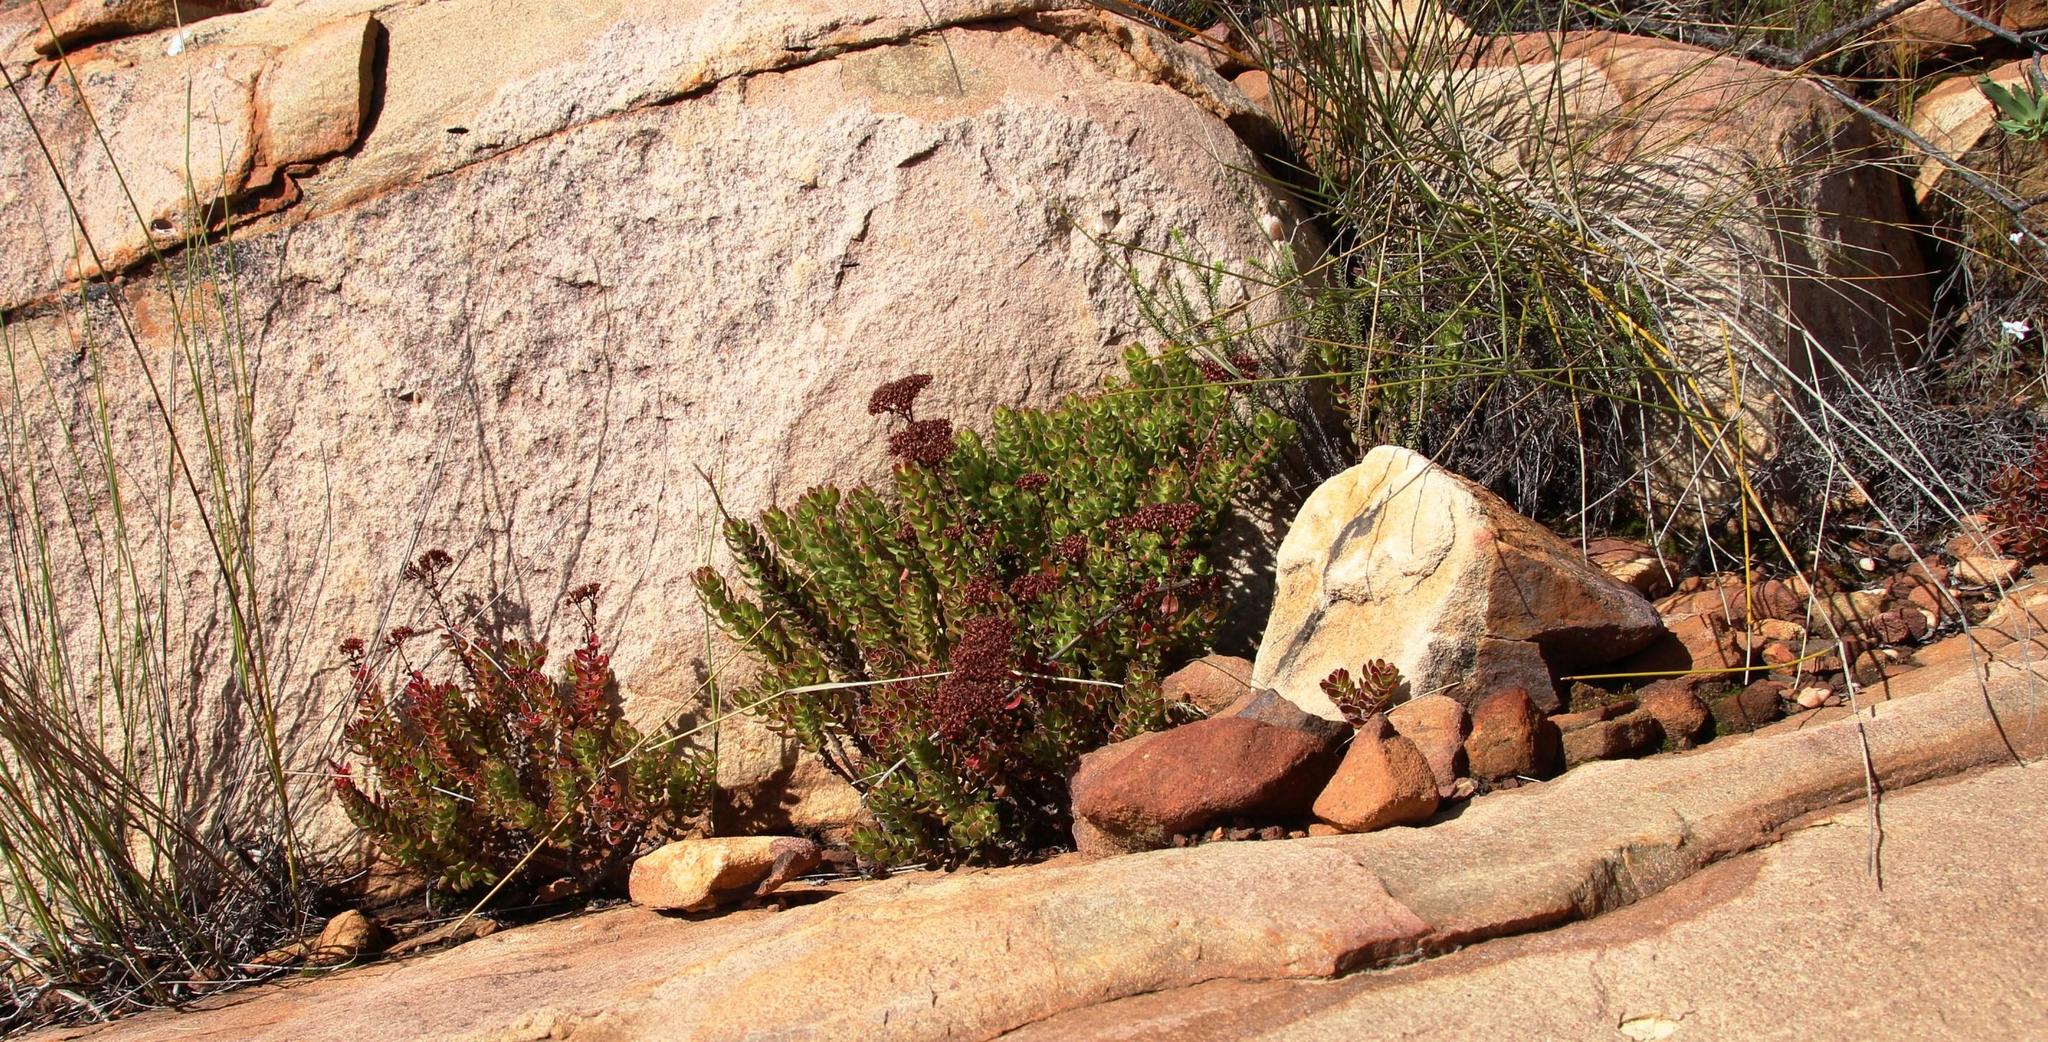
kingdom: Plantae
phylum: Tracheophyta
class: Magnoliopsida
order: Saxifragales
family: Crassulaceae
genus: Crassula
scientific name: Crassula undulata
